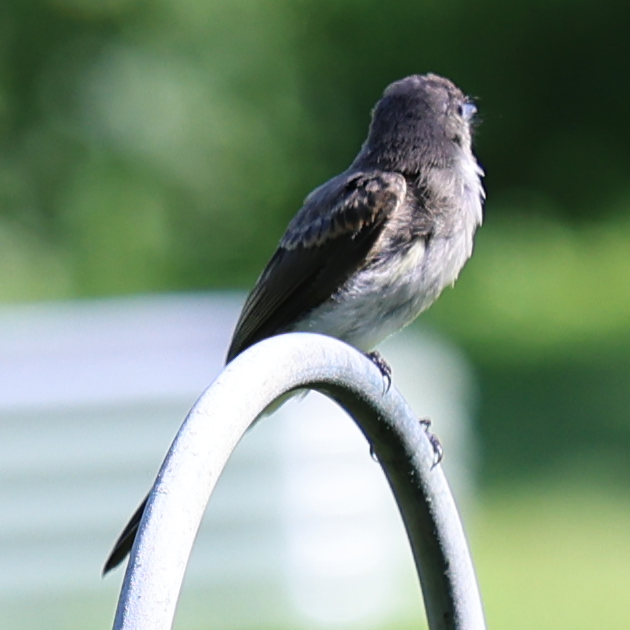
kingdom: Animalia
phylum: Chordata
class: Aves
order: Passeriformes
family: Tyrannidae
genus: Sayornis
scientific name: Sayornis phoebe
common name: Eastern phoebe
